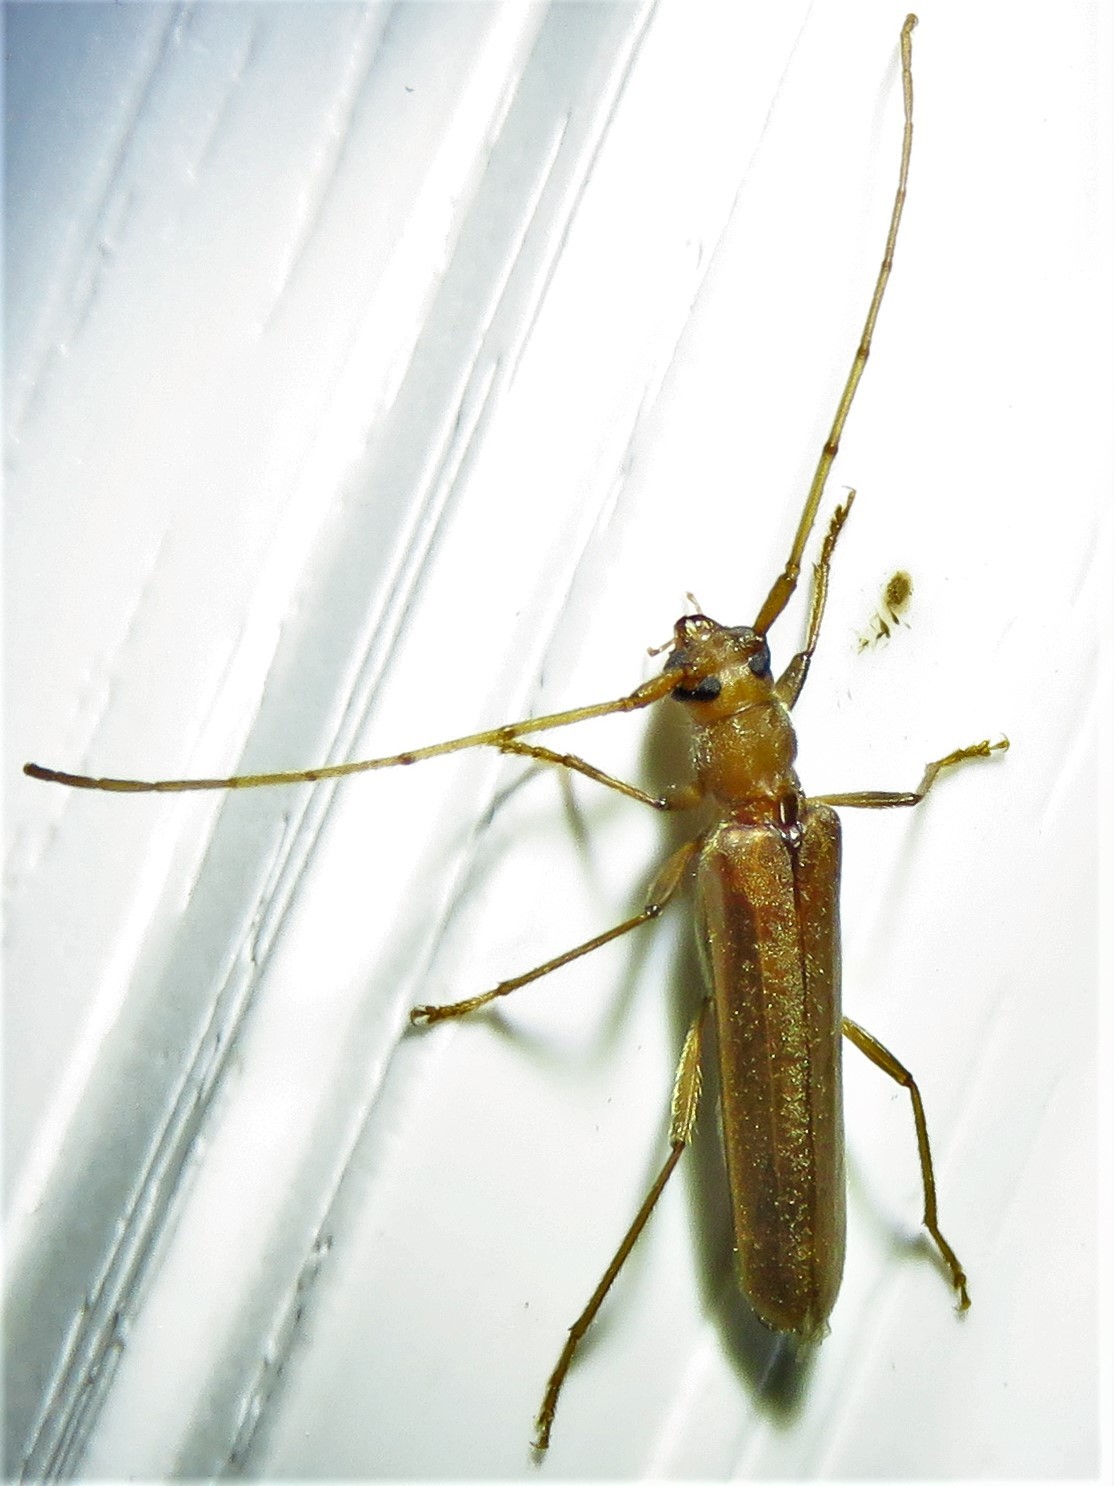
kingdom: Animalia
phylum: Arthropoda
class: Insecta
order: Coleoptera
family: Cerambycidae
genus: Oeme
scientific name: Oeme rigida
